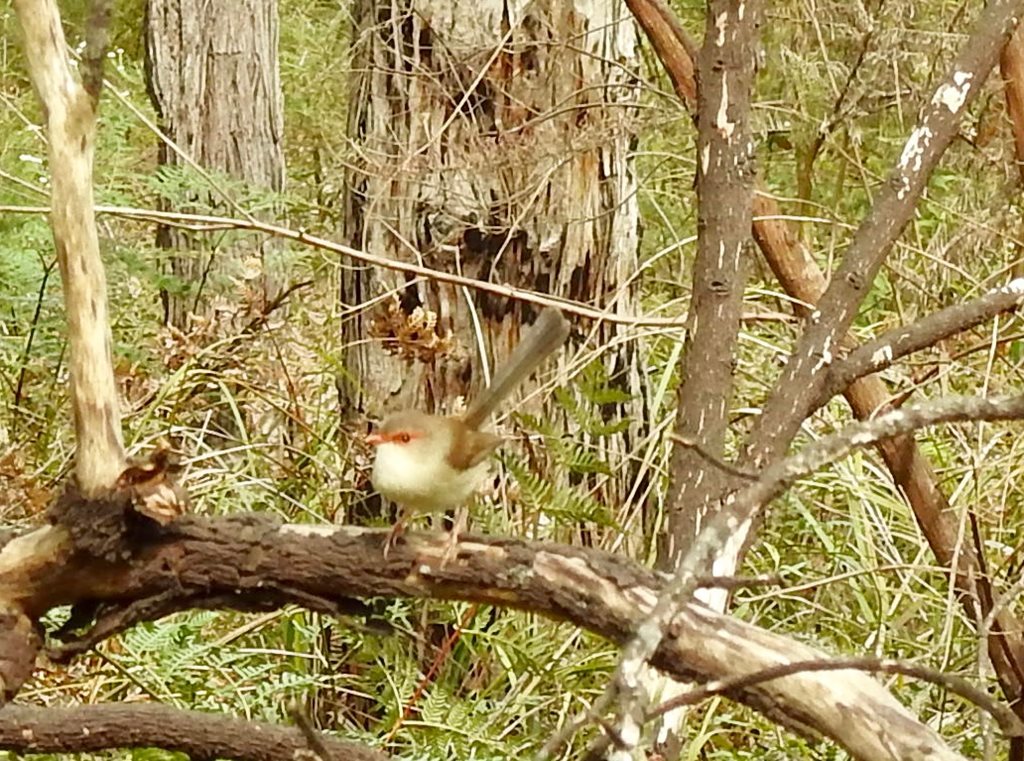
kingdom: Animalia
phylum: Chordata
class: Aves
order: Passeriformes
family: Maluridae
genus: Malurus
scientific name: Malurus cyaneus
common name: Superb fairywren
